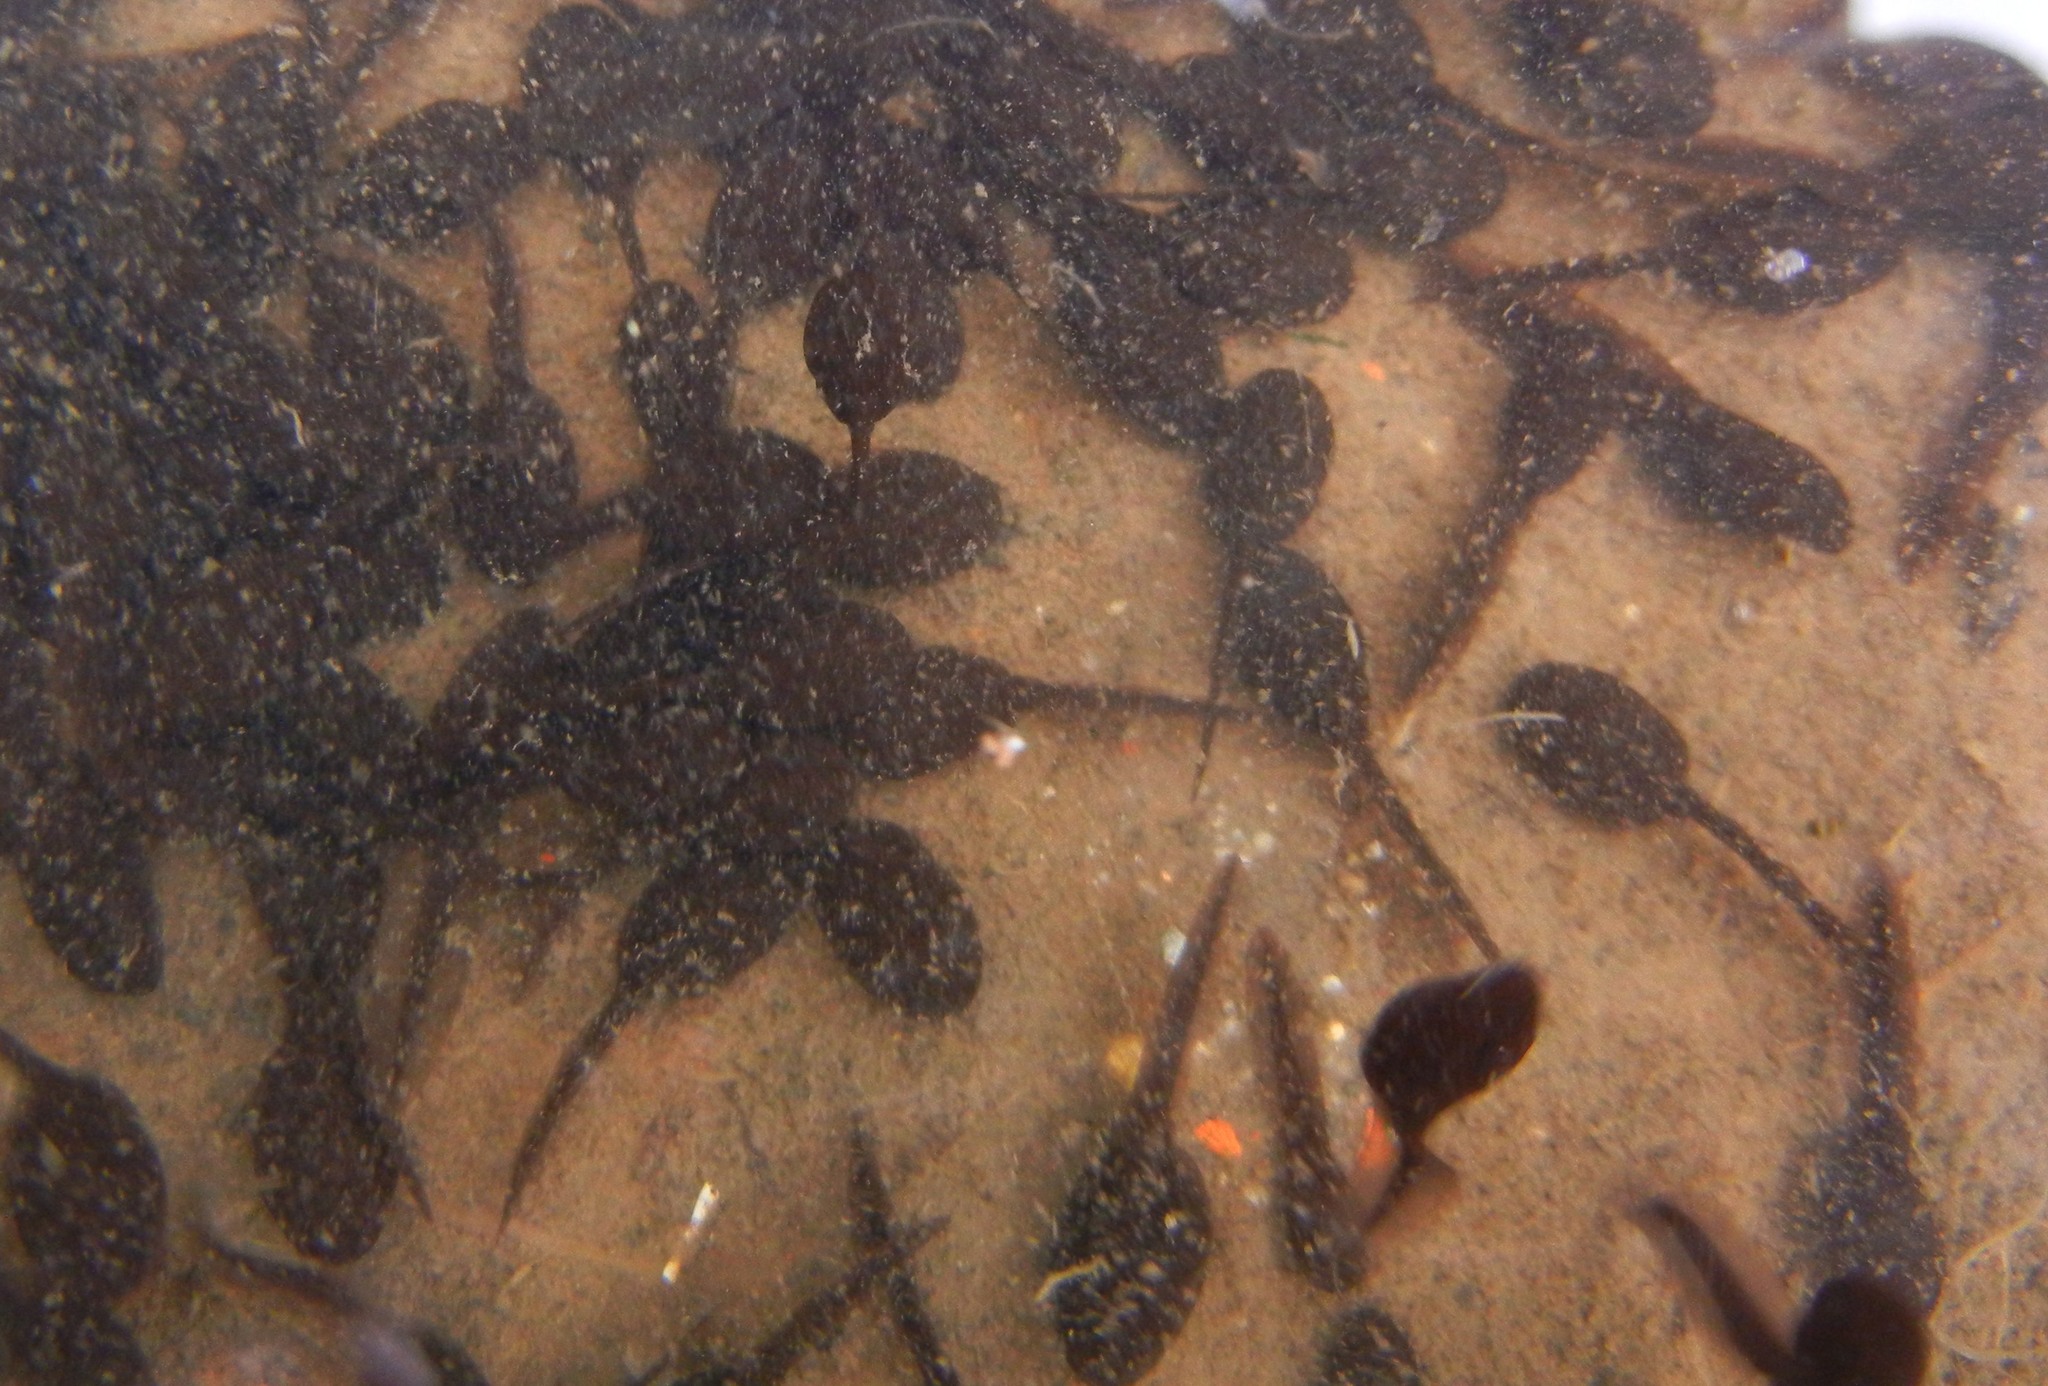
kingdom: Animalia
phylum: Chordata
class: Amphibia
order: Anura
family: Bufonidae
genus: Bufo
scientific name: Bufo bufo
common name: Common toad
